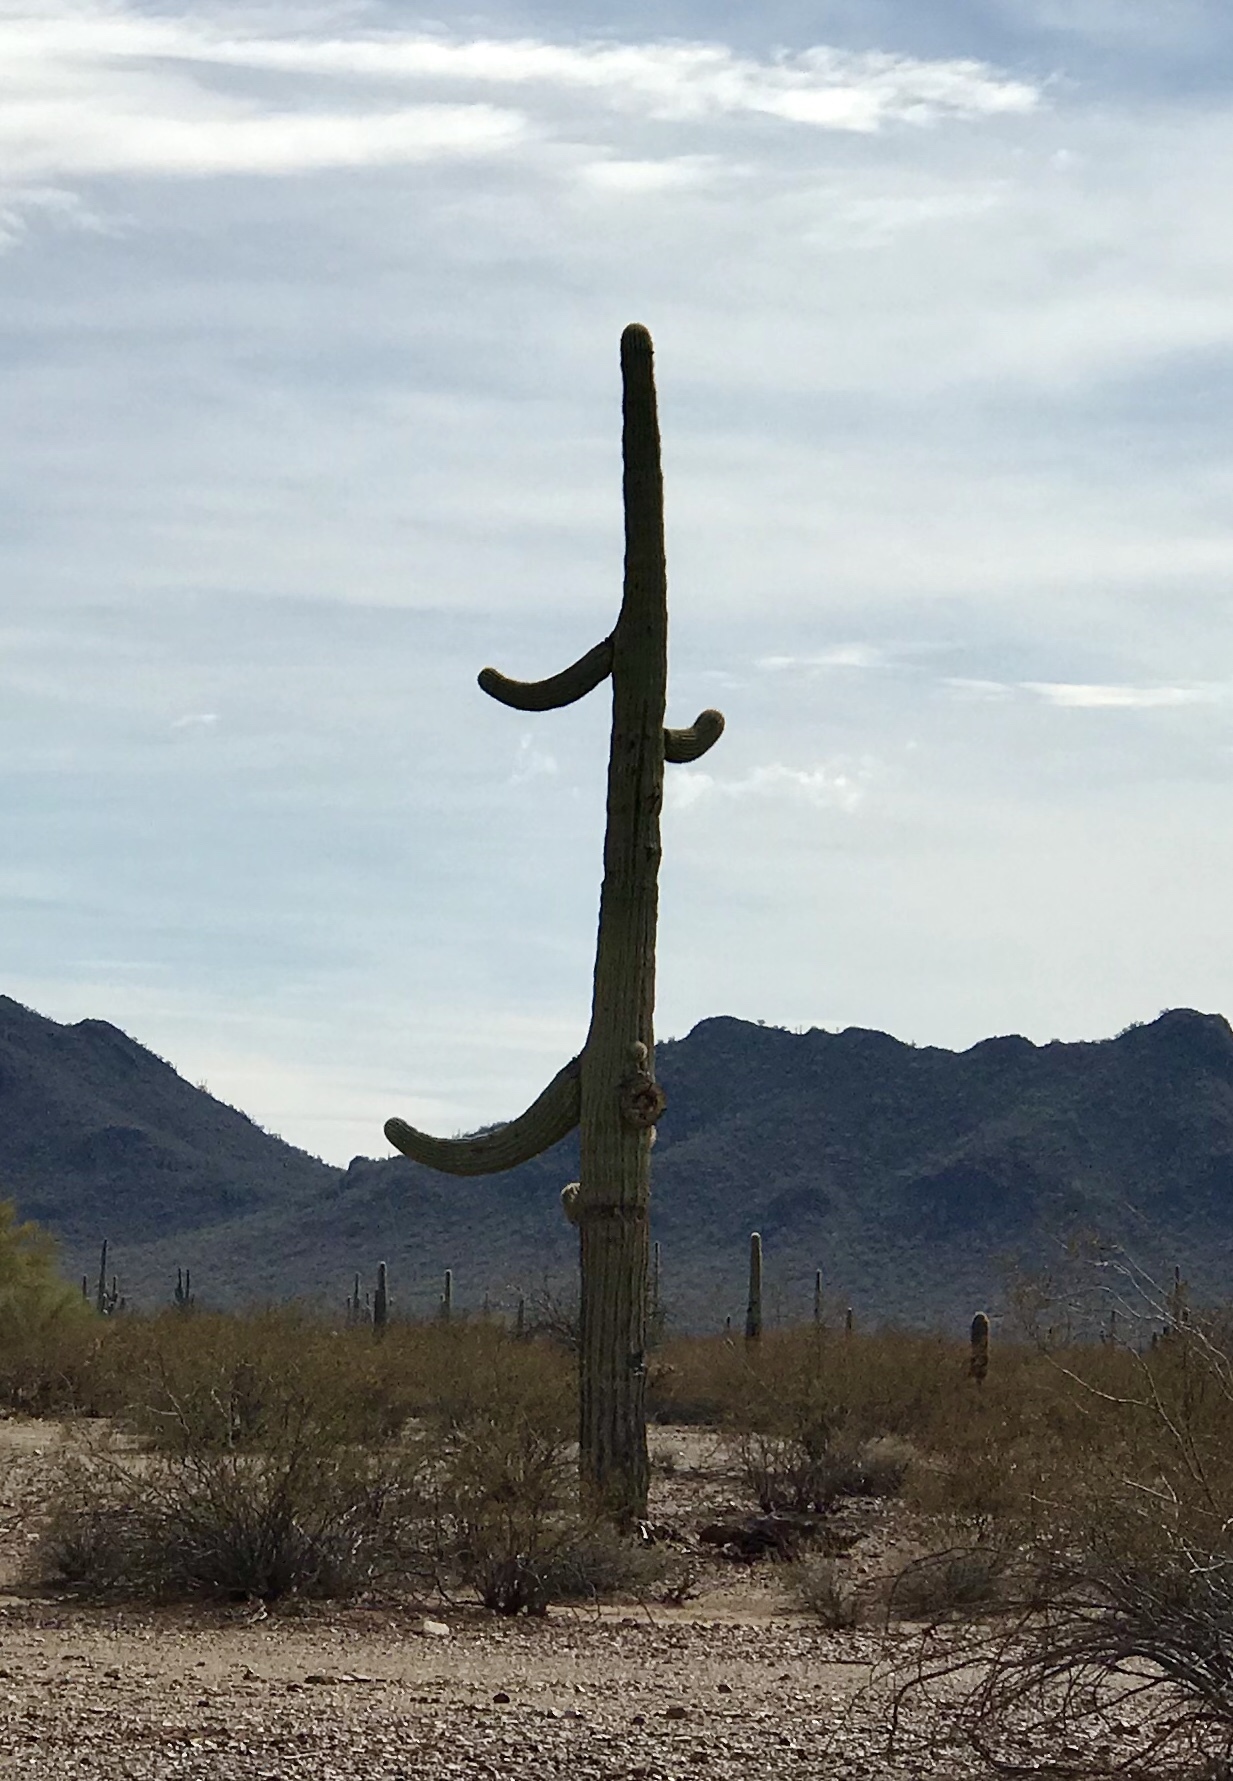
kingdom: Plantae
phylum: Tracheophyta
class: Magnoliopsida
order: Caryophyllales
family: Cactaceae
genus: Carnegiea
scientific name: Carnegiea gigantea
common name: Saguaro
